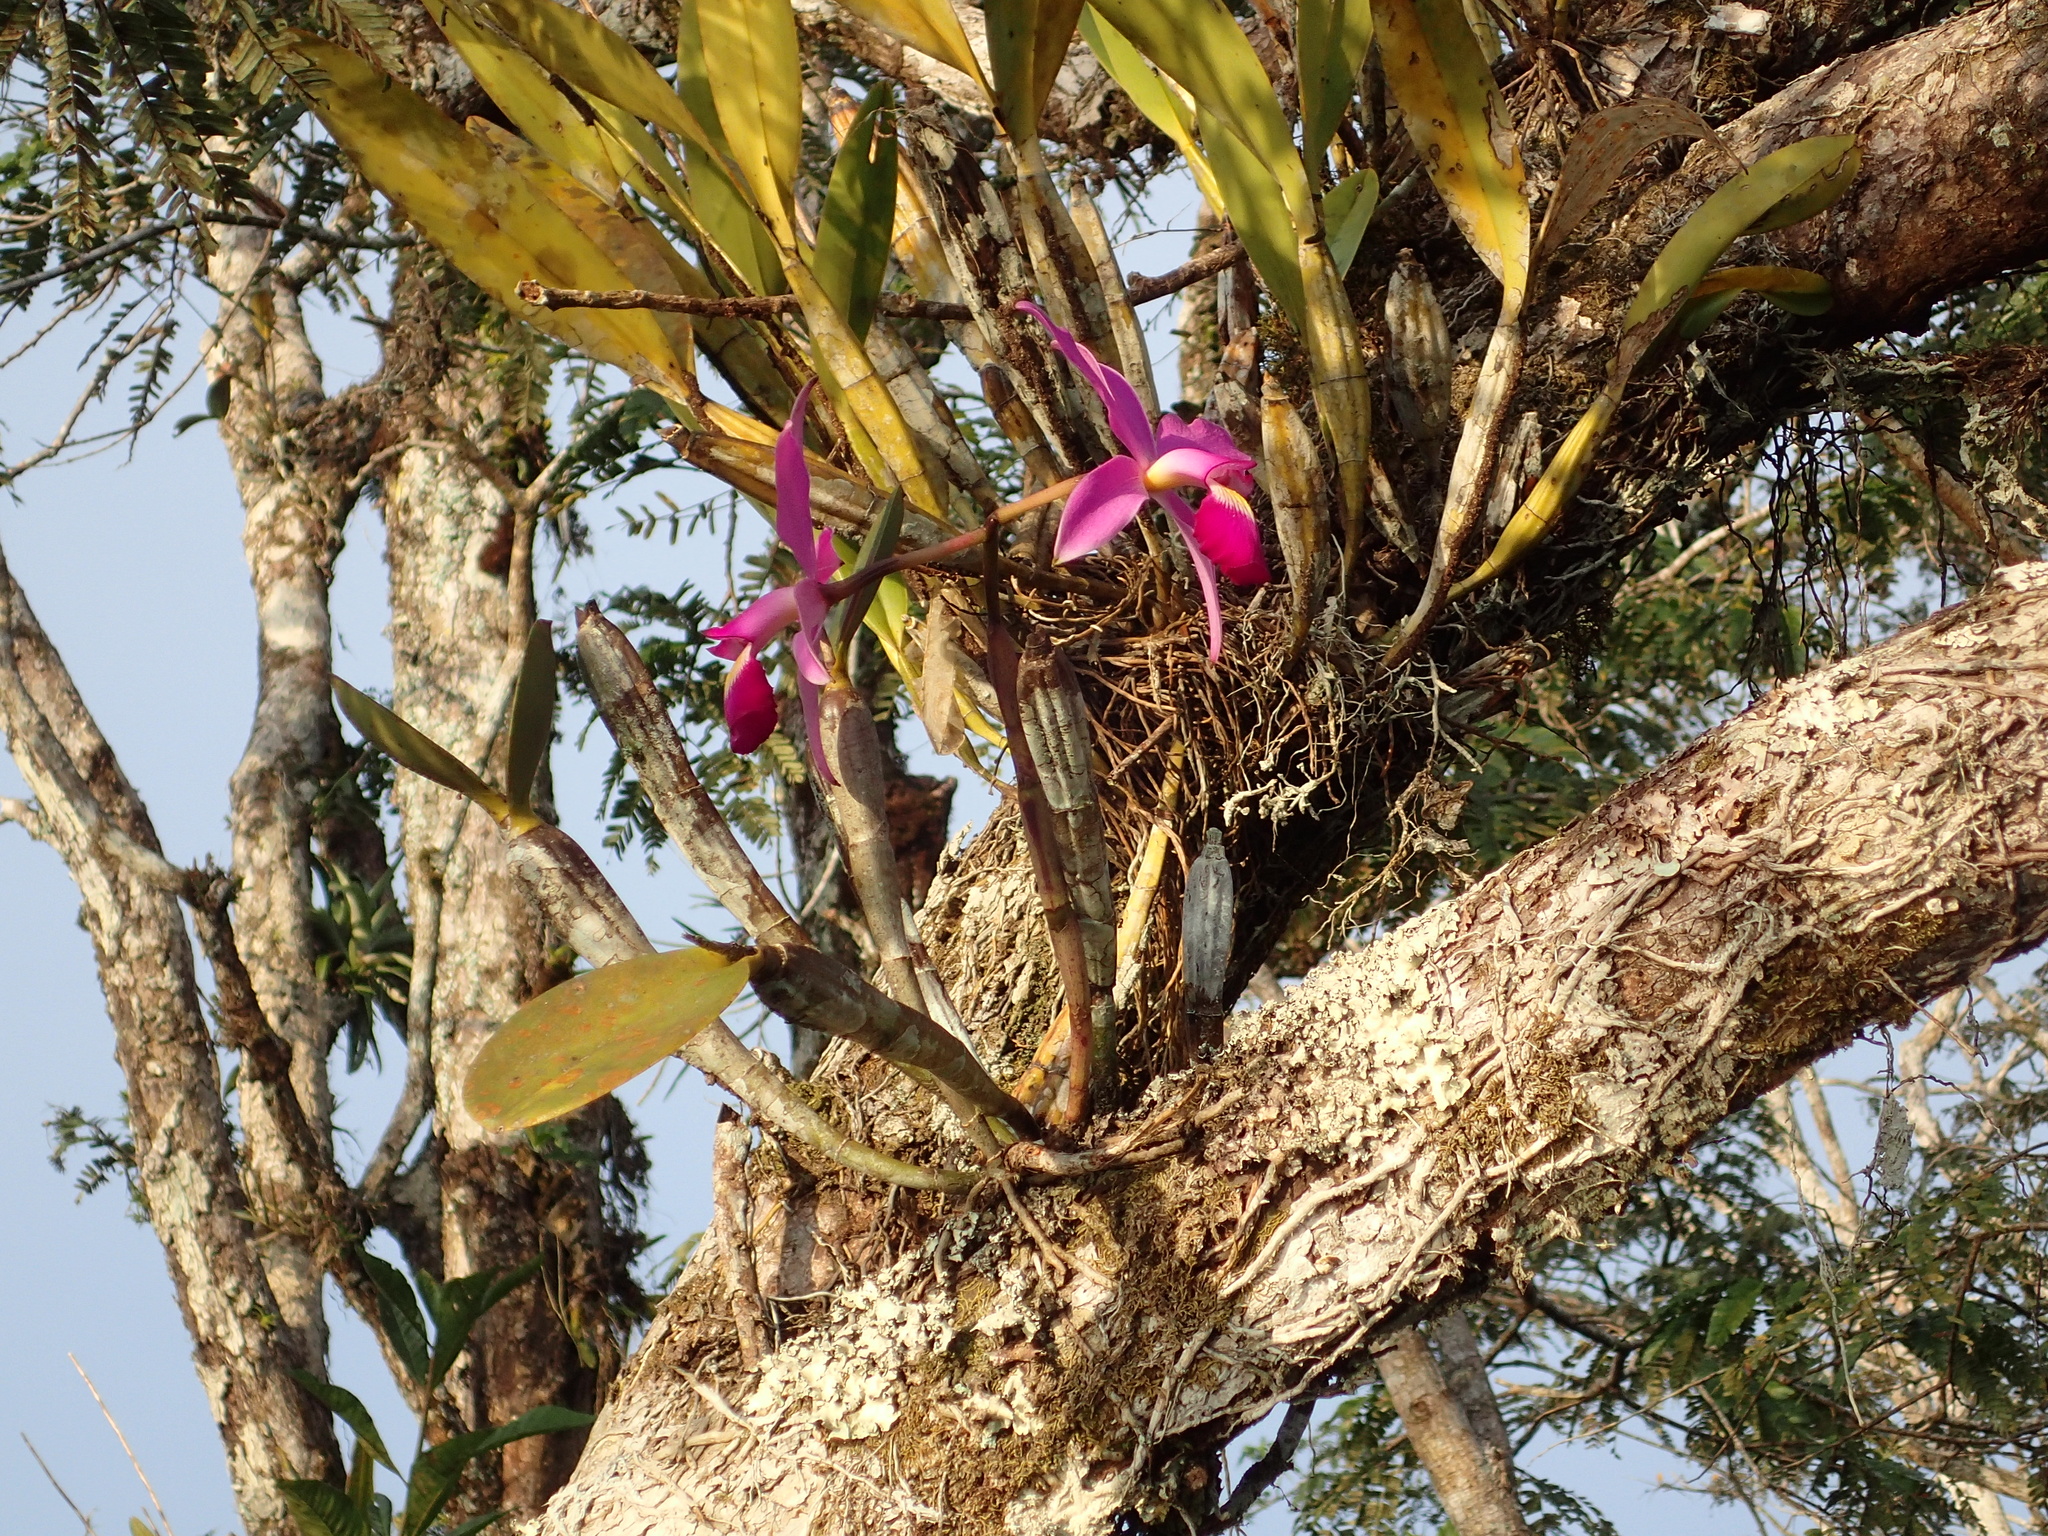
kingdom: Plantae
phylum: Tracheophyta
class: Liliopsida
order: Asparagales
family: Orchidaceae
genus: Cattleya
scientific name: Cattleya violacea
